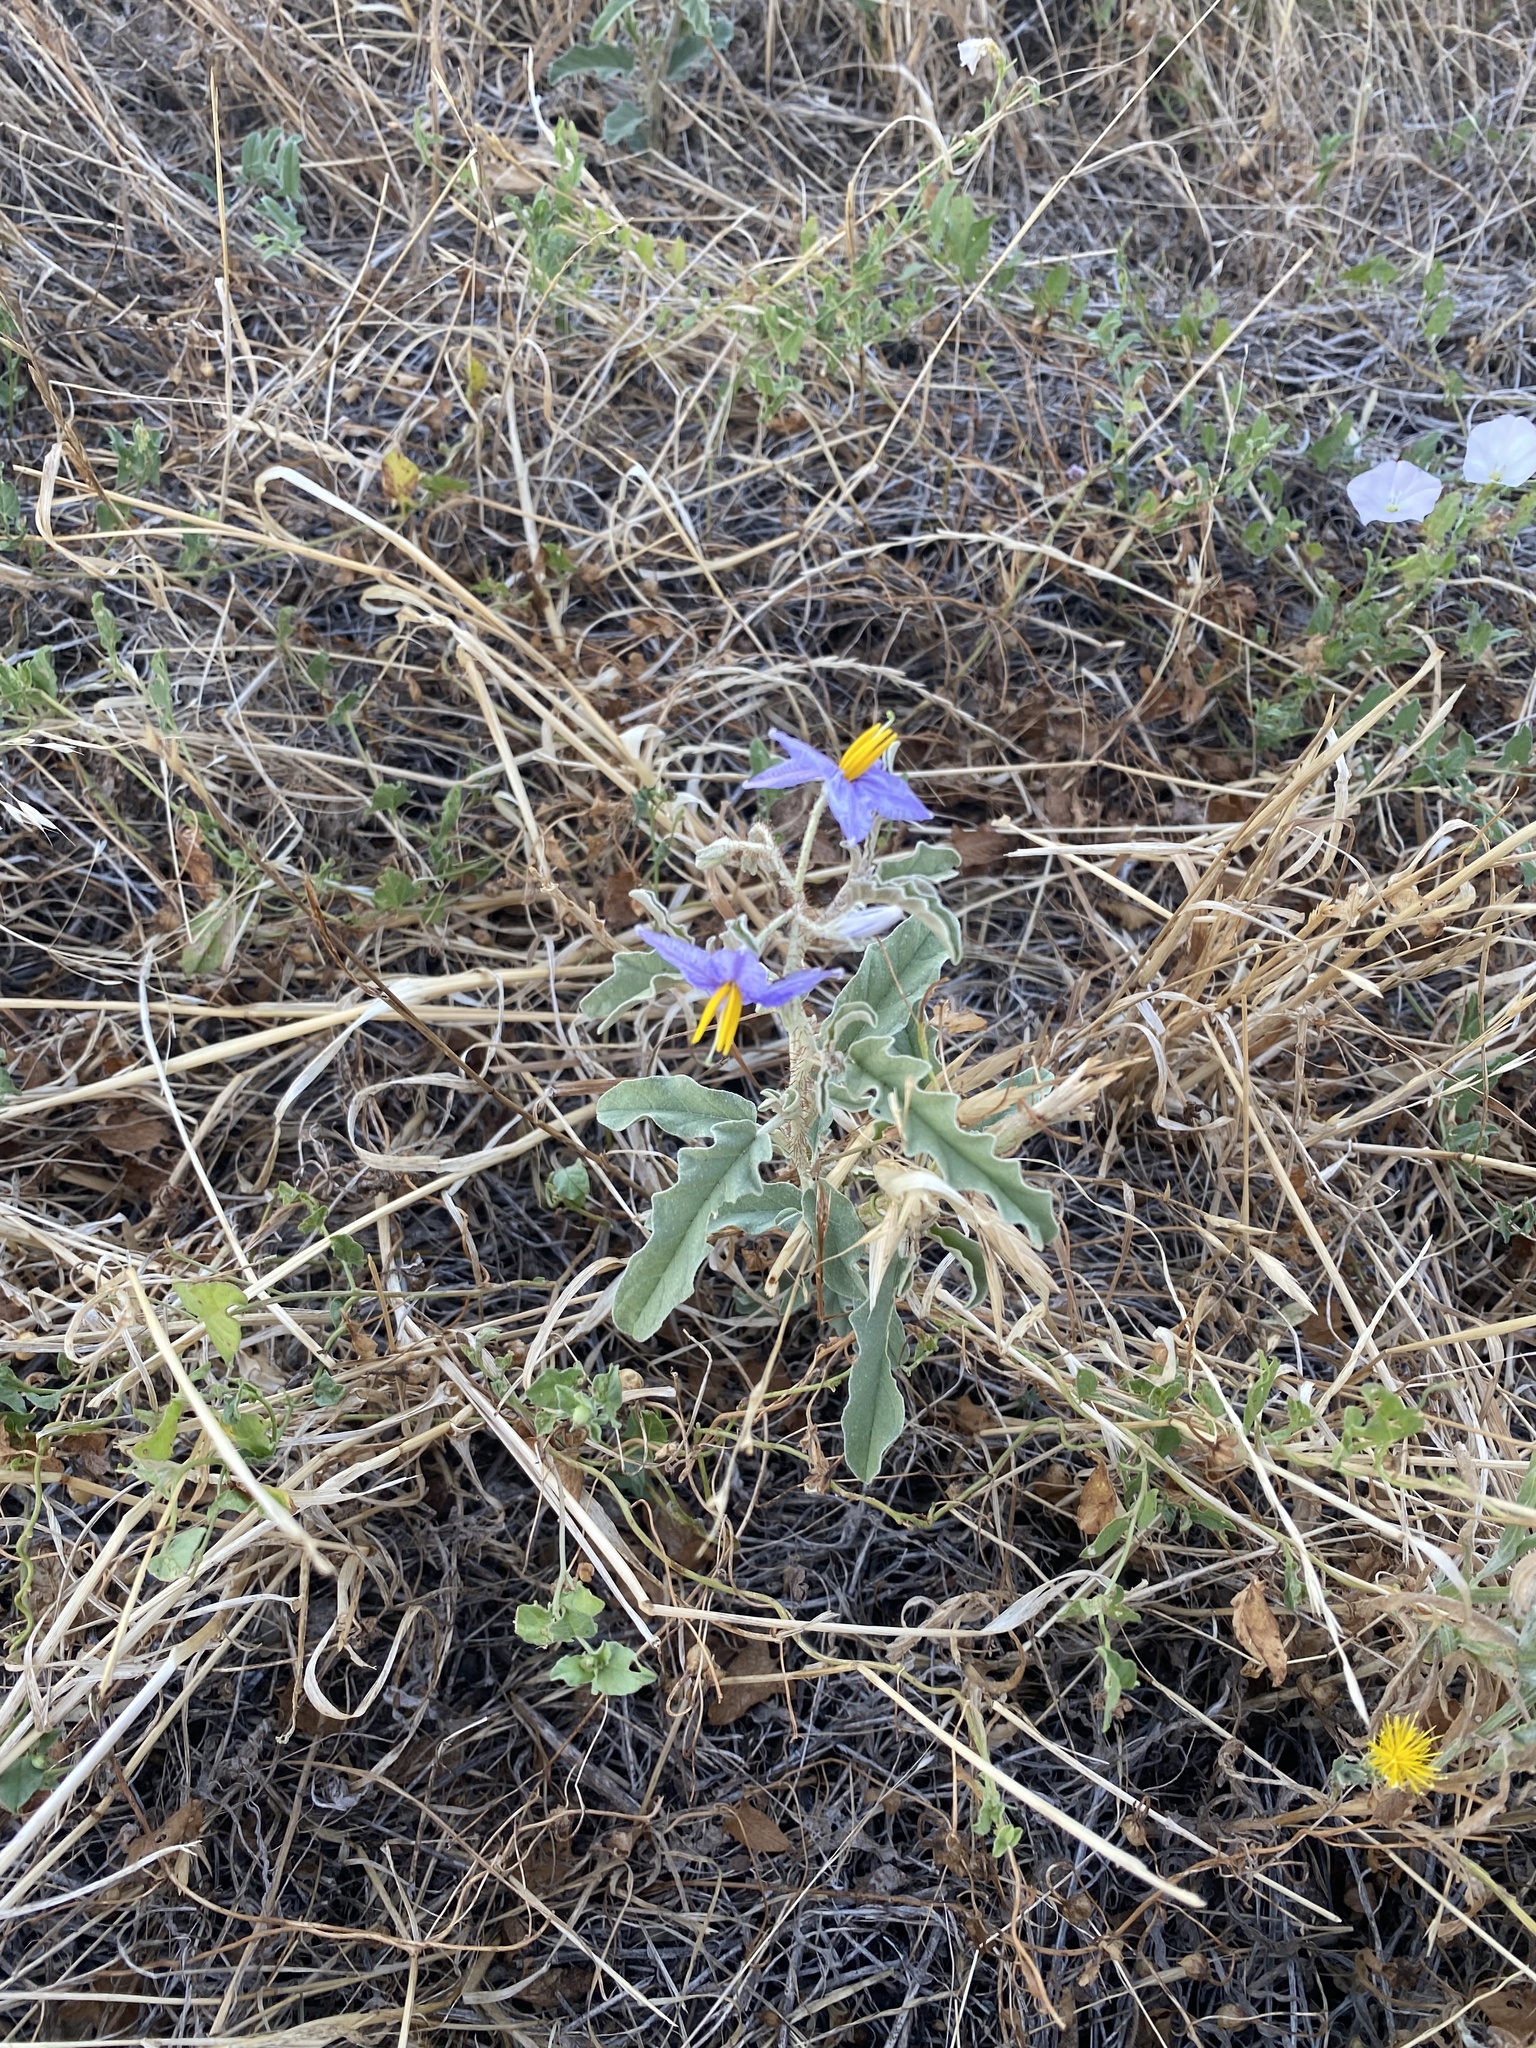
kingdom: Plantae
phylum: Tracheophyta
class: Magnoliopsida
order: Solanales
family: Solanaceae
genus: Solanum
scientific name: Solanum elaeagnifolium
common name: Silverleaf nightshade
